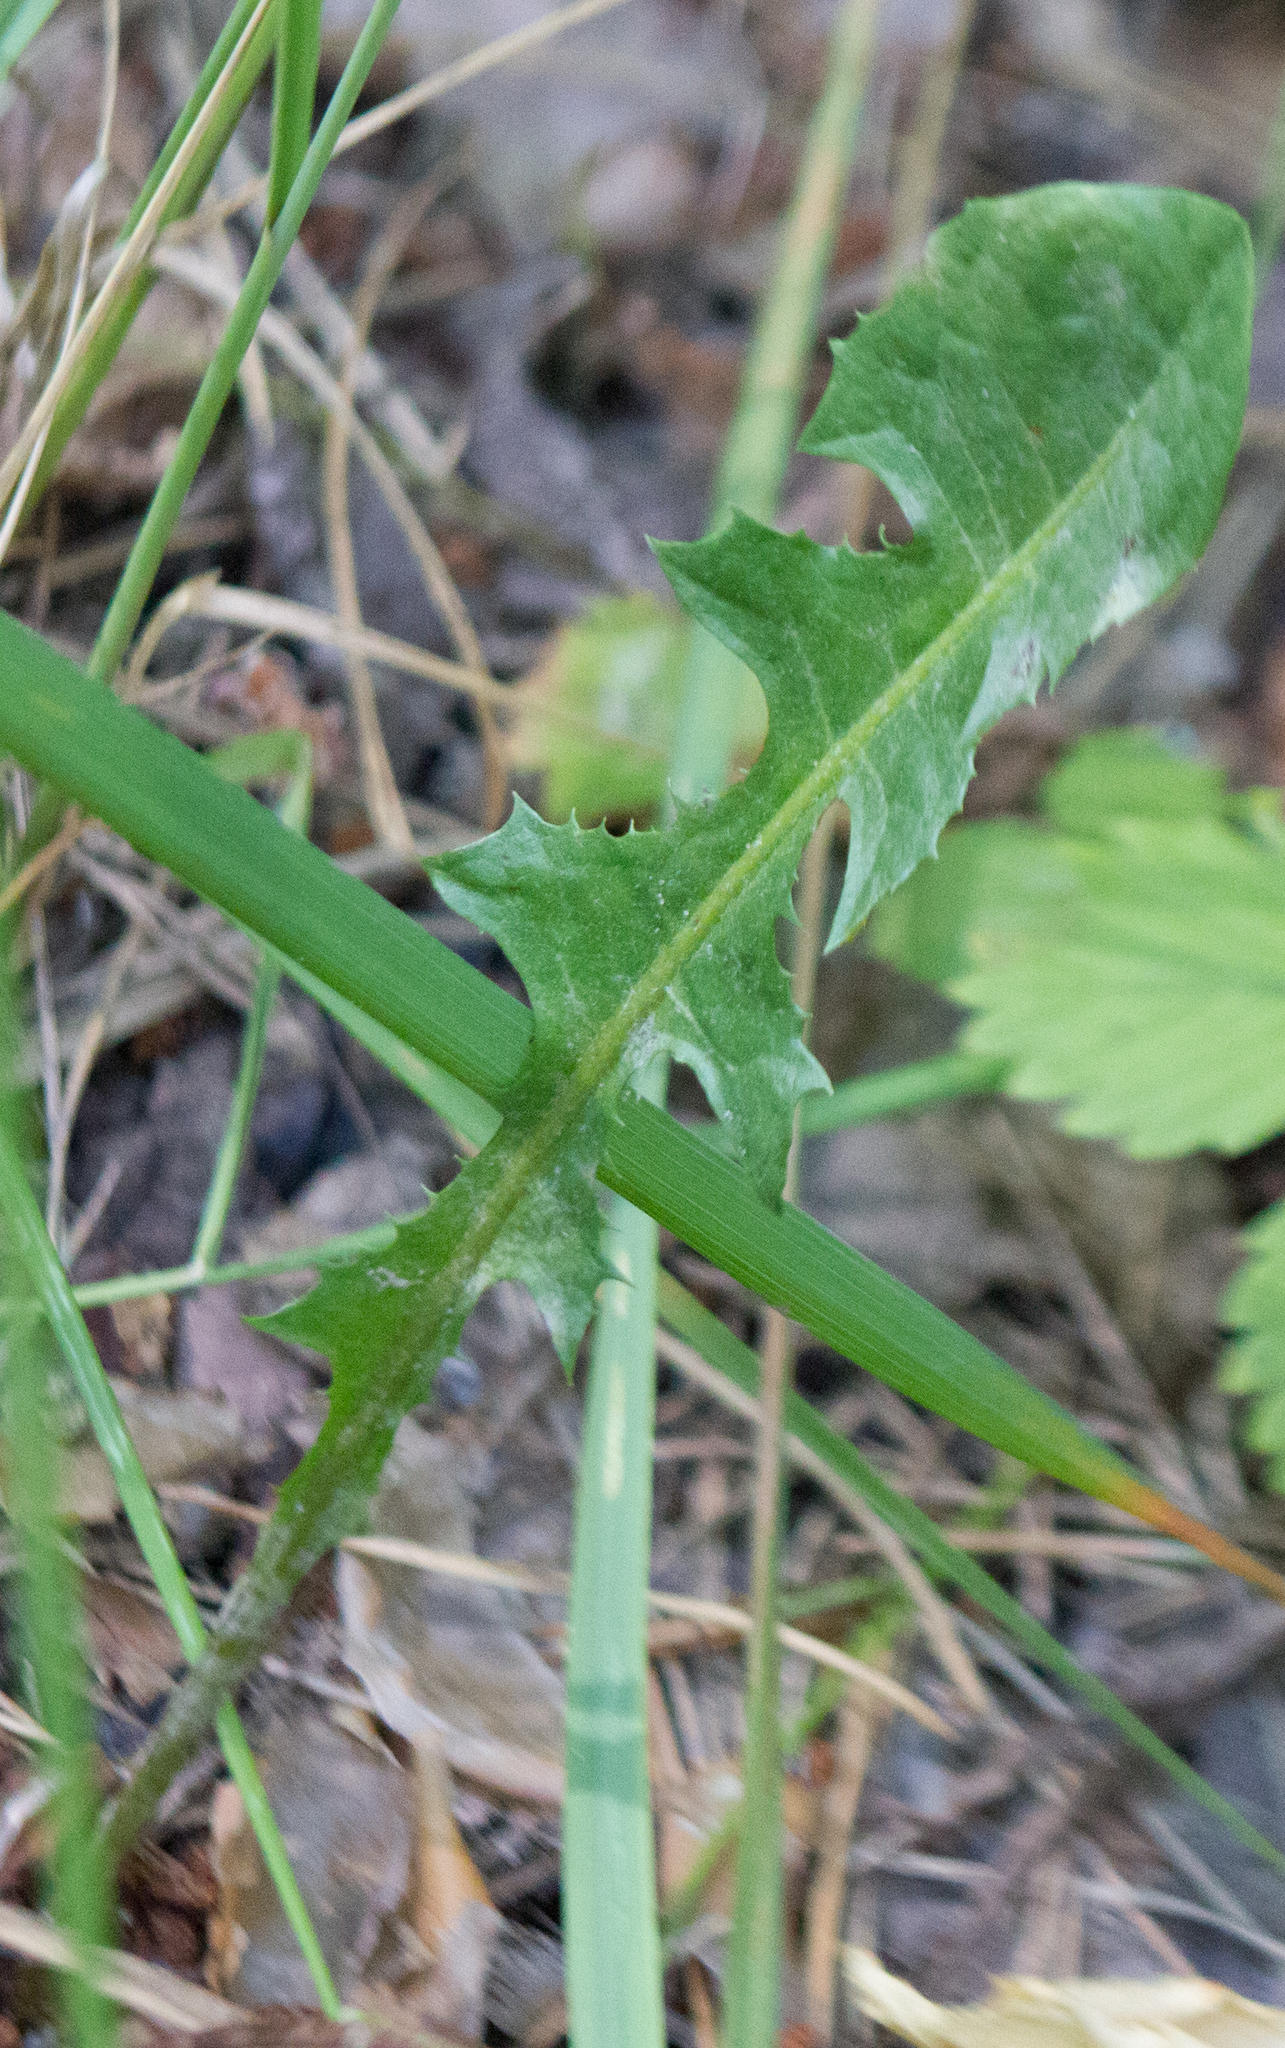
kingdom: Plantae
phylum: Tracheophyta
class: Magnoliopsida
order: Asterales
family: Asteraceae
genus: Taraxacum
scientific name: Taraxacum officinale
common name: Common dandelion
